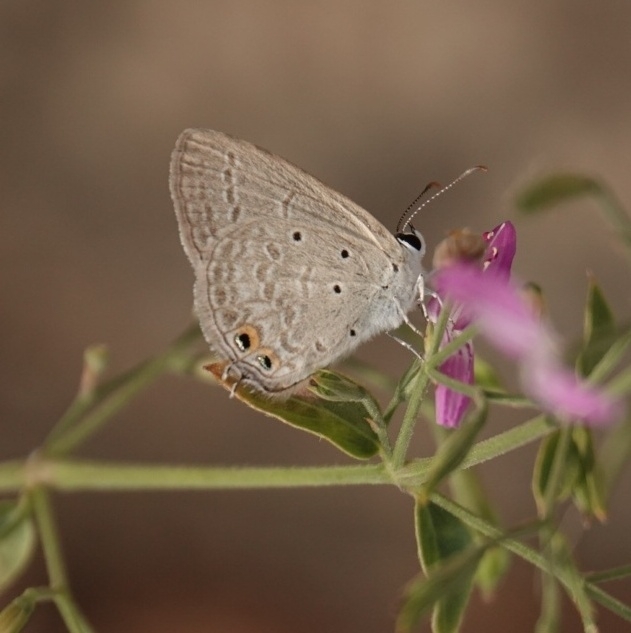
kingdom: Animalia
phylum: Arthropoda
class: Insecta
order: Lepidoptera
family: Lycaenidae
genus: Euchrysops
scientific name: Euchrysops cnejus
